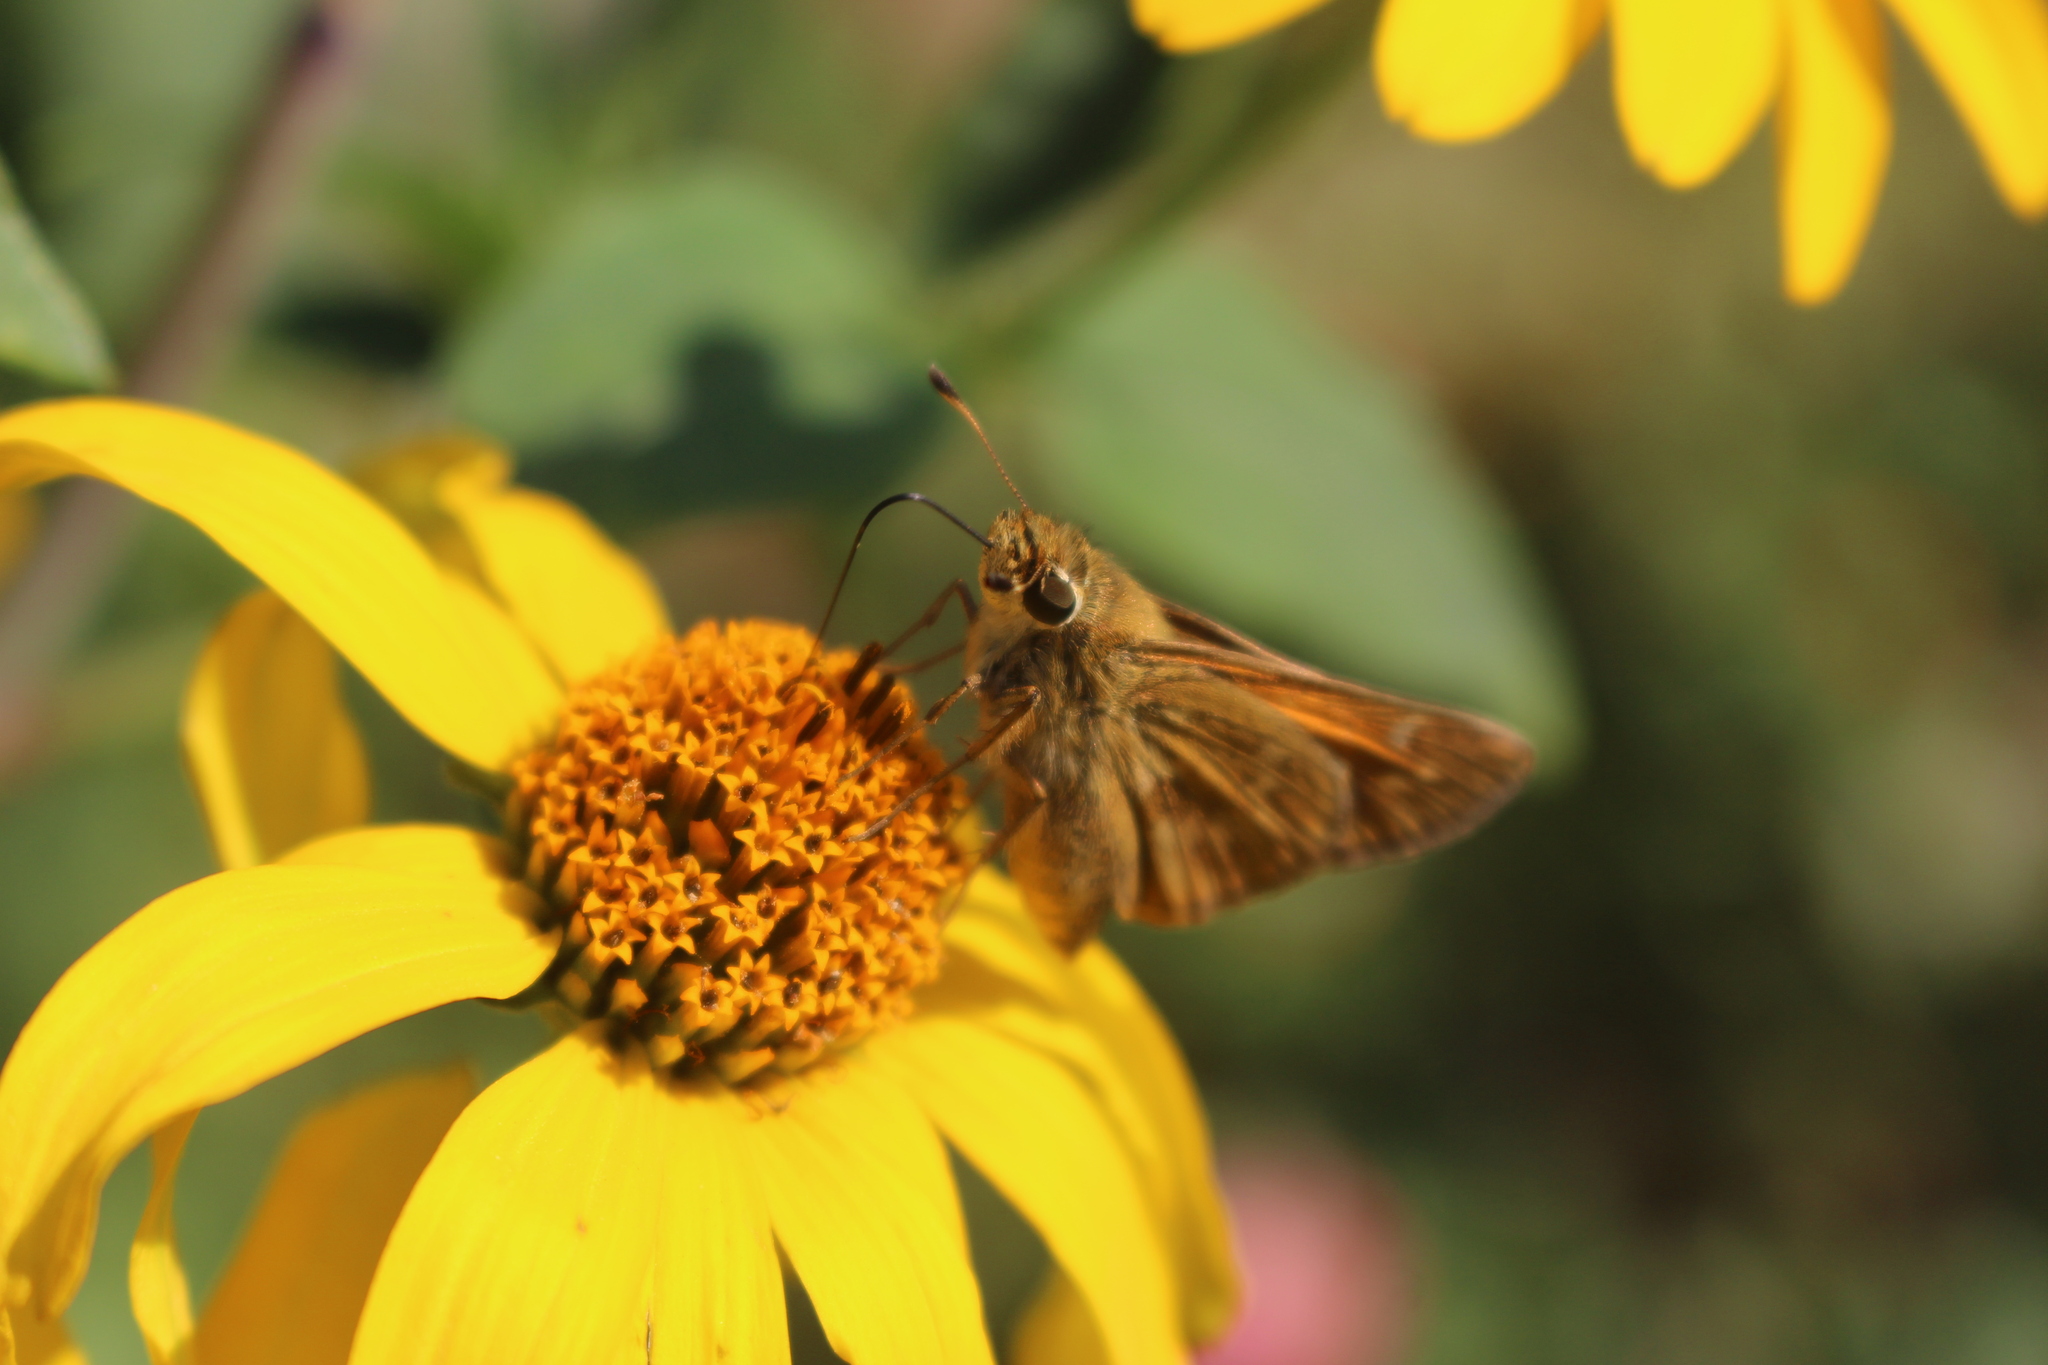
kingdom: Animalia
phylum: Arthropoda
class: Insecta
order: Lepidoptera
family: Hesperiidae
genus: Atalopedes
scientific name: Atalopedes
